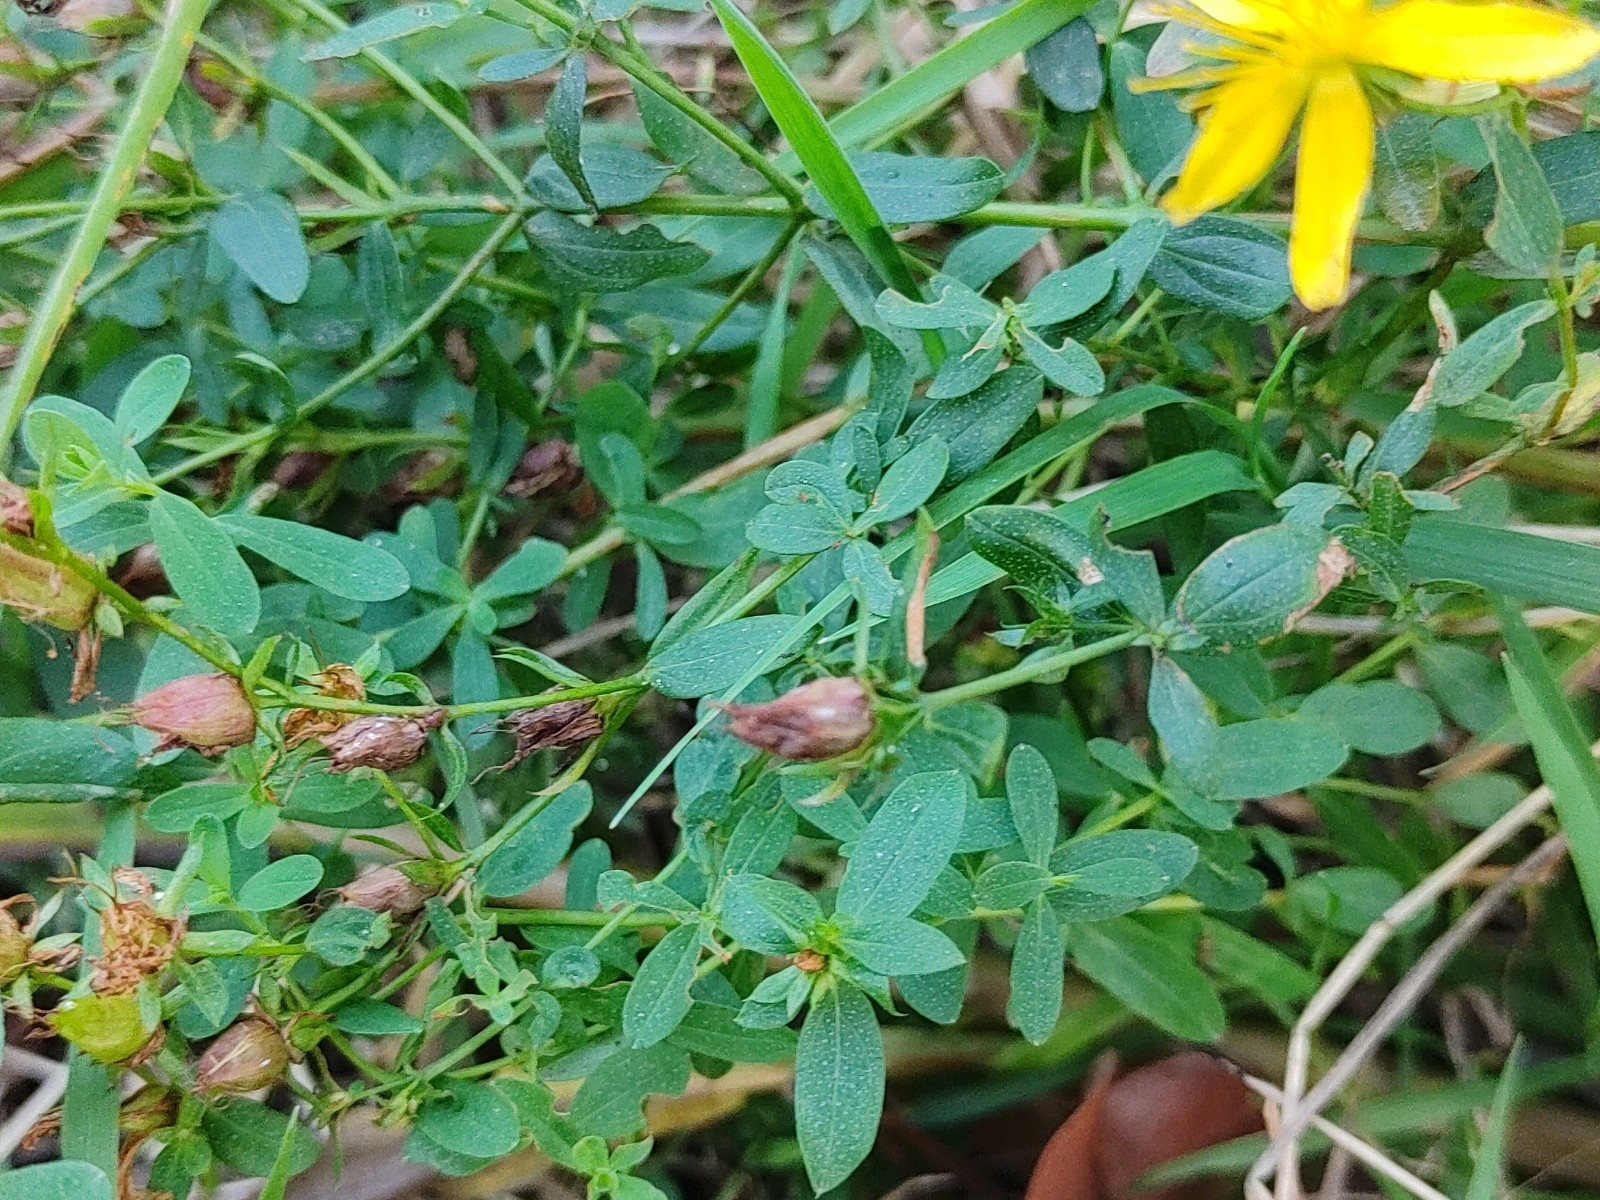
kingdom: Plantae
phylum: Tracheophyta
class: Magnoliopsida
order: Malpighiales
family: Hypericaceae
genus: Hypericum
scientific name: Hypericum perforatum
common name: Common st. johnswort
